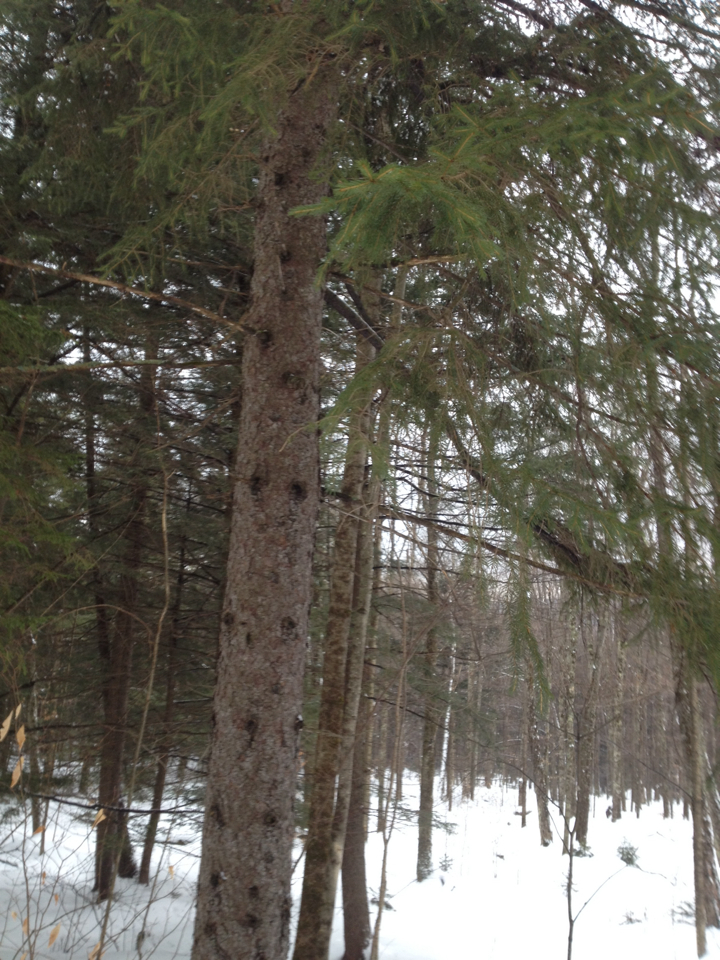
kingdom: Plantae
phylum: Tracheophyta
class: Pinopsida
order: Pinales
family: Pinaceae
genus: Picea
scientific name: Picea rubens
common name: Red spruce
